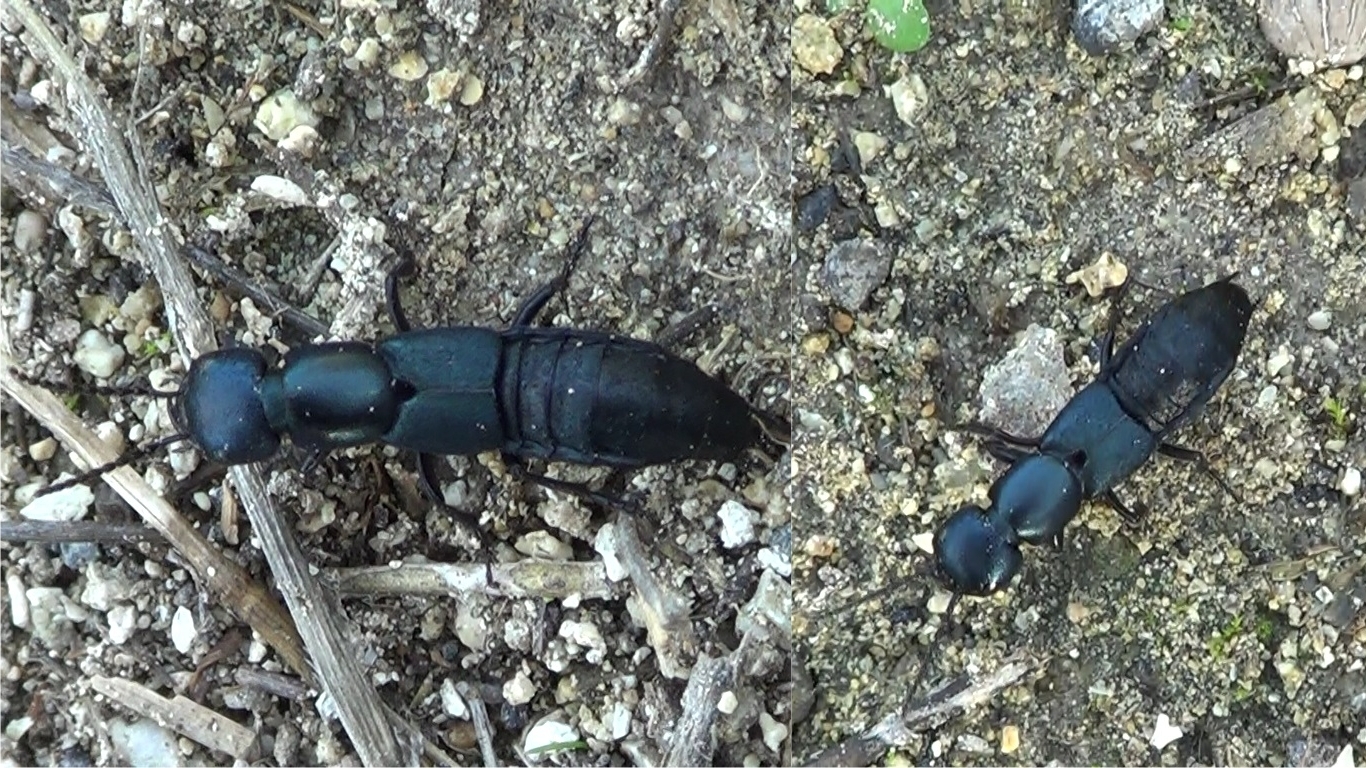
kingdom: Animalia
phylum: Arthropoda
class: Insecta
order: Coleoptera
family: Staphylinidae
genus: Ocypus
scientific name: Ocypus ophthalmicus
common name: Blue rove-beetle
